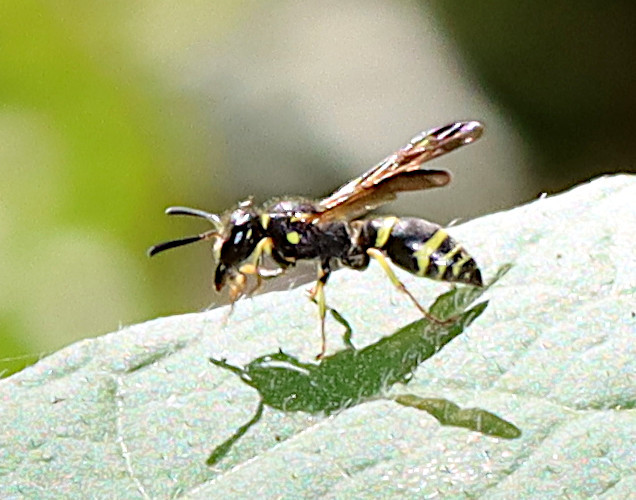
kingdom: Animalia
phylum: Arthropoda
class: Insecta
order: Hymenoptera
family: Vespidae
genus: Ancistrocerus
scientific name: Ancistrocerus
